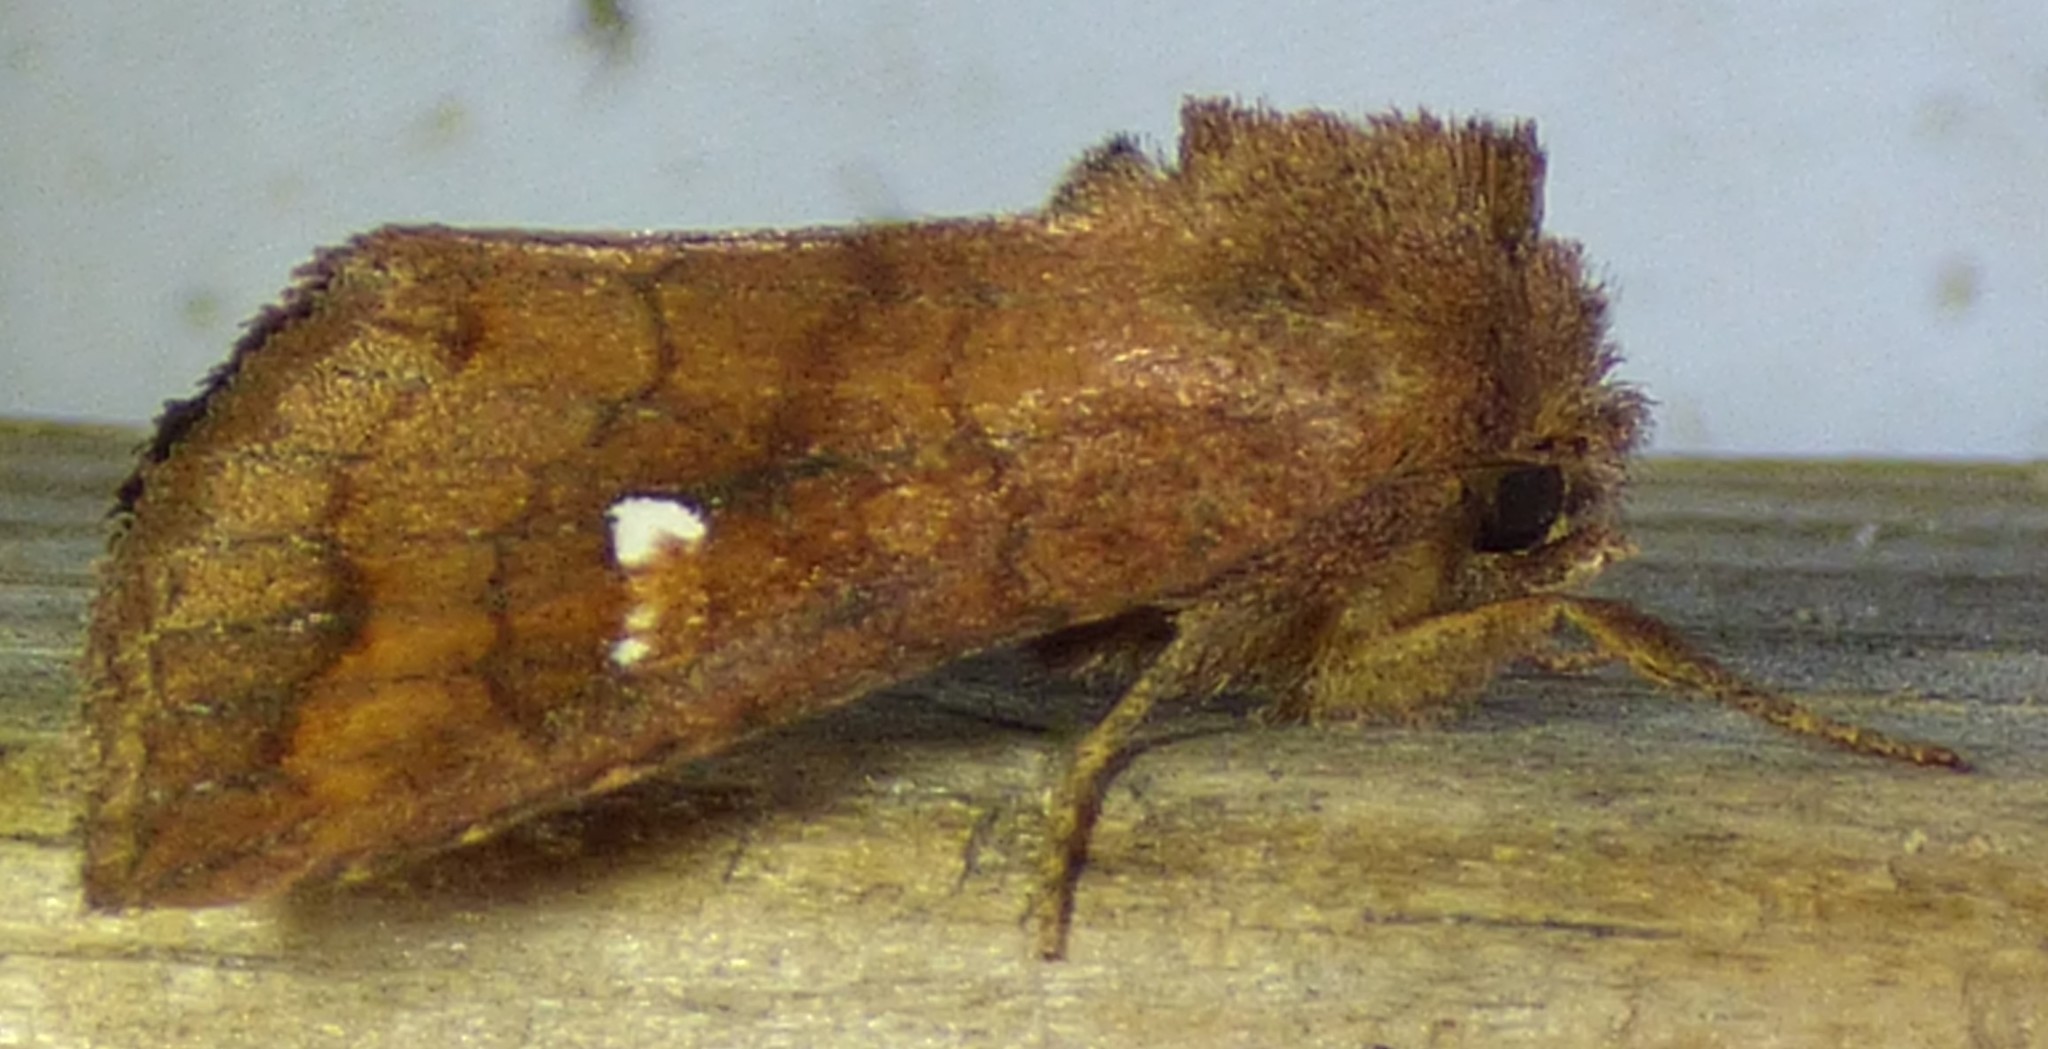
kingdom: Animalia
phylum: Arthropoda
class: Insecta
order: Lepidoptera
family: Noctuidae
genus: Tricholita
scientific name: Tricholita signata
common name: Signate quaker
